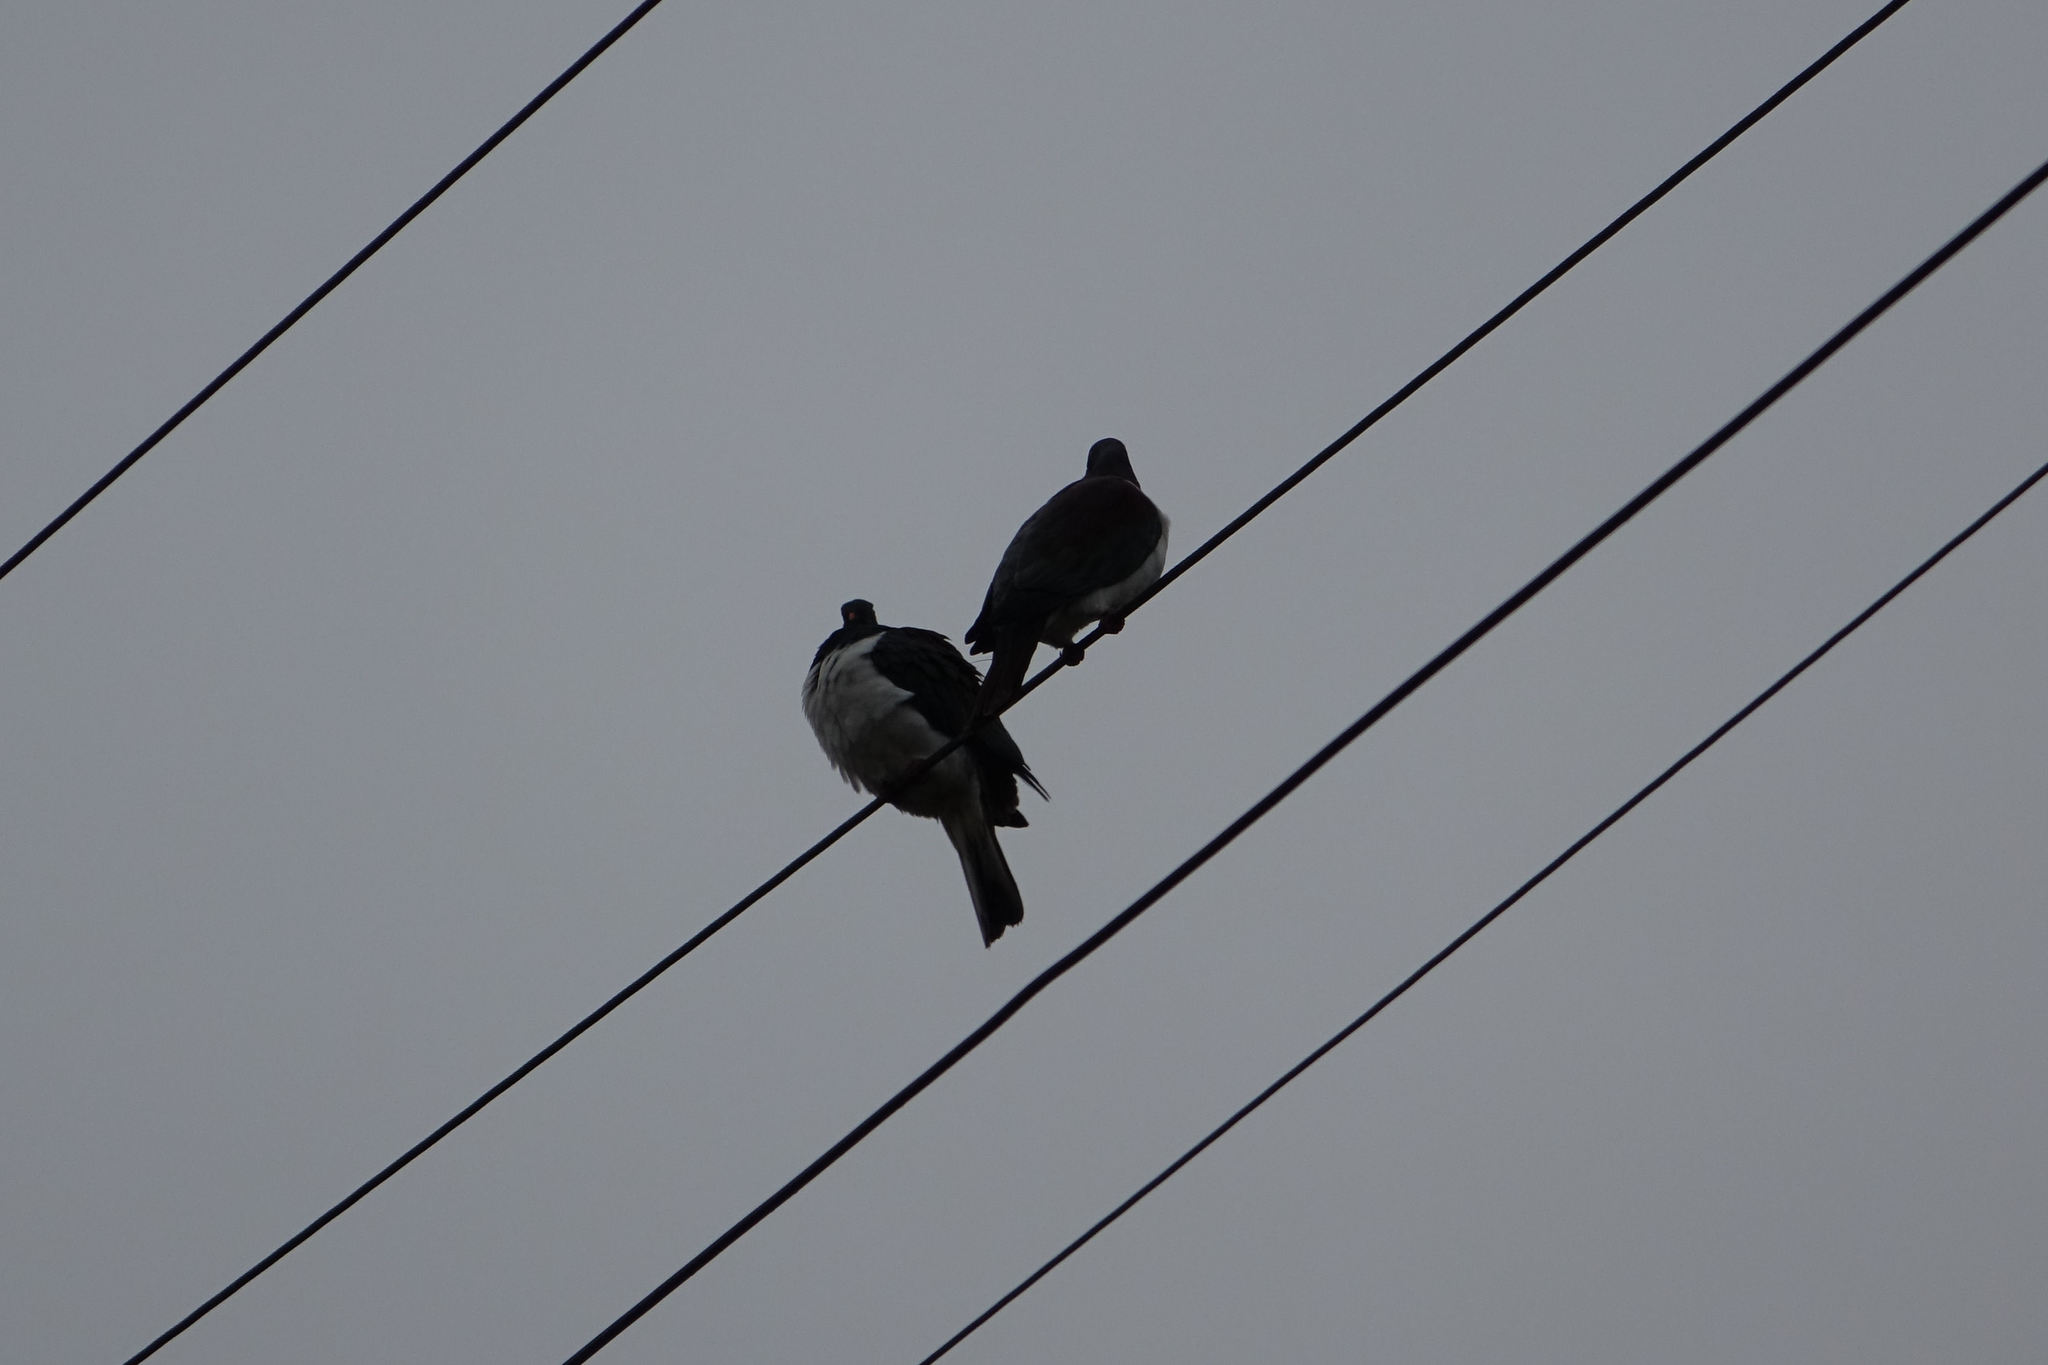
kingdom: Animalia
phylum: Chordata
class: Aves
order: Columbiformes
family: Columbidae
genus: Hemiphaga
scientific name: Hemiphaga novaeseelandiae
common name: New zealand pigeon
